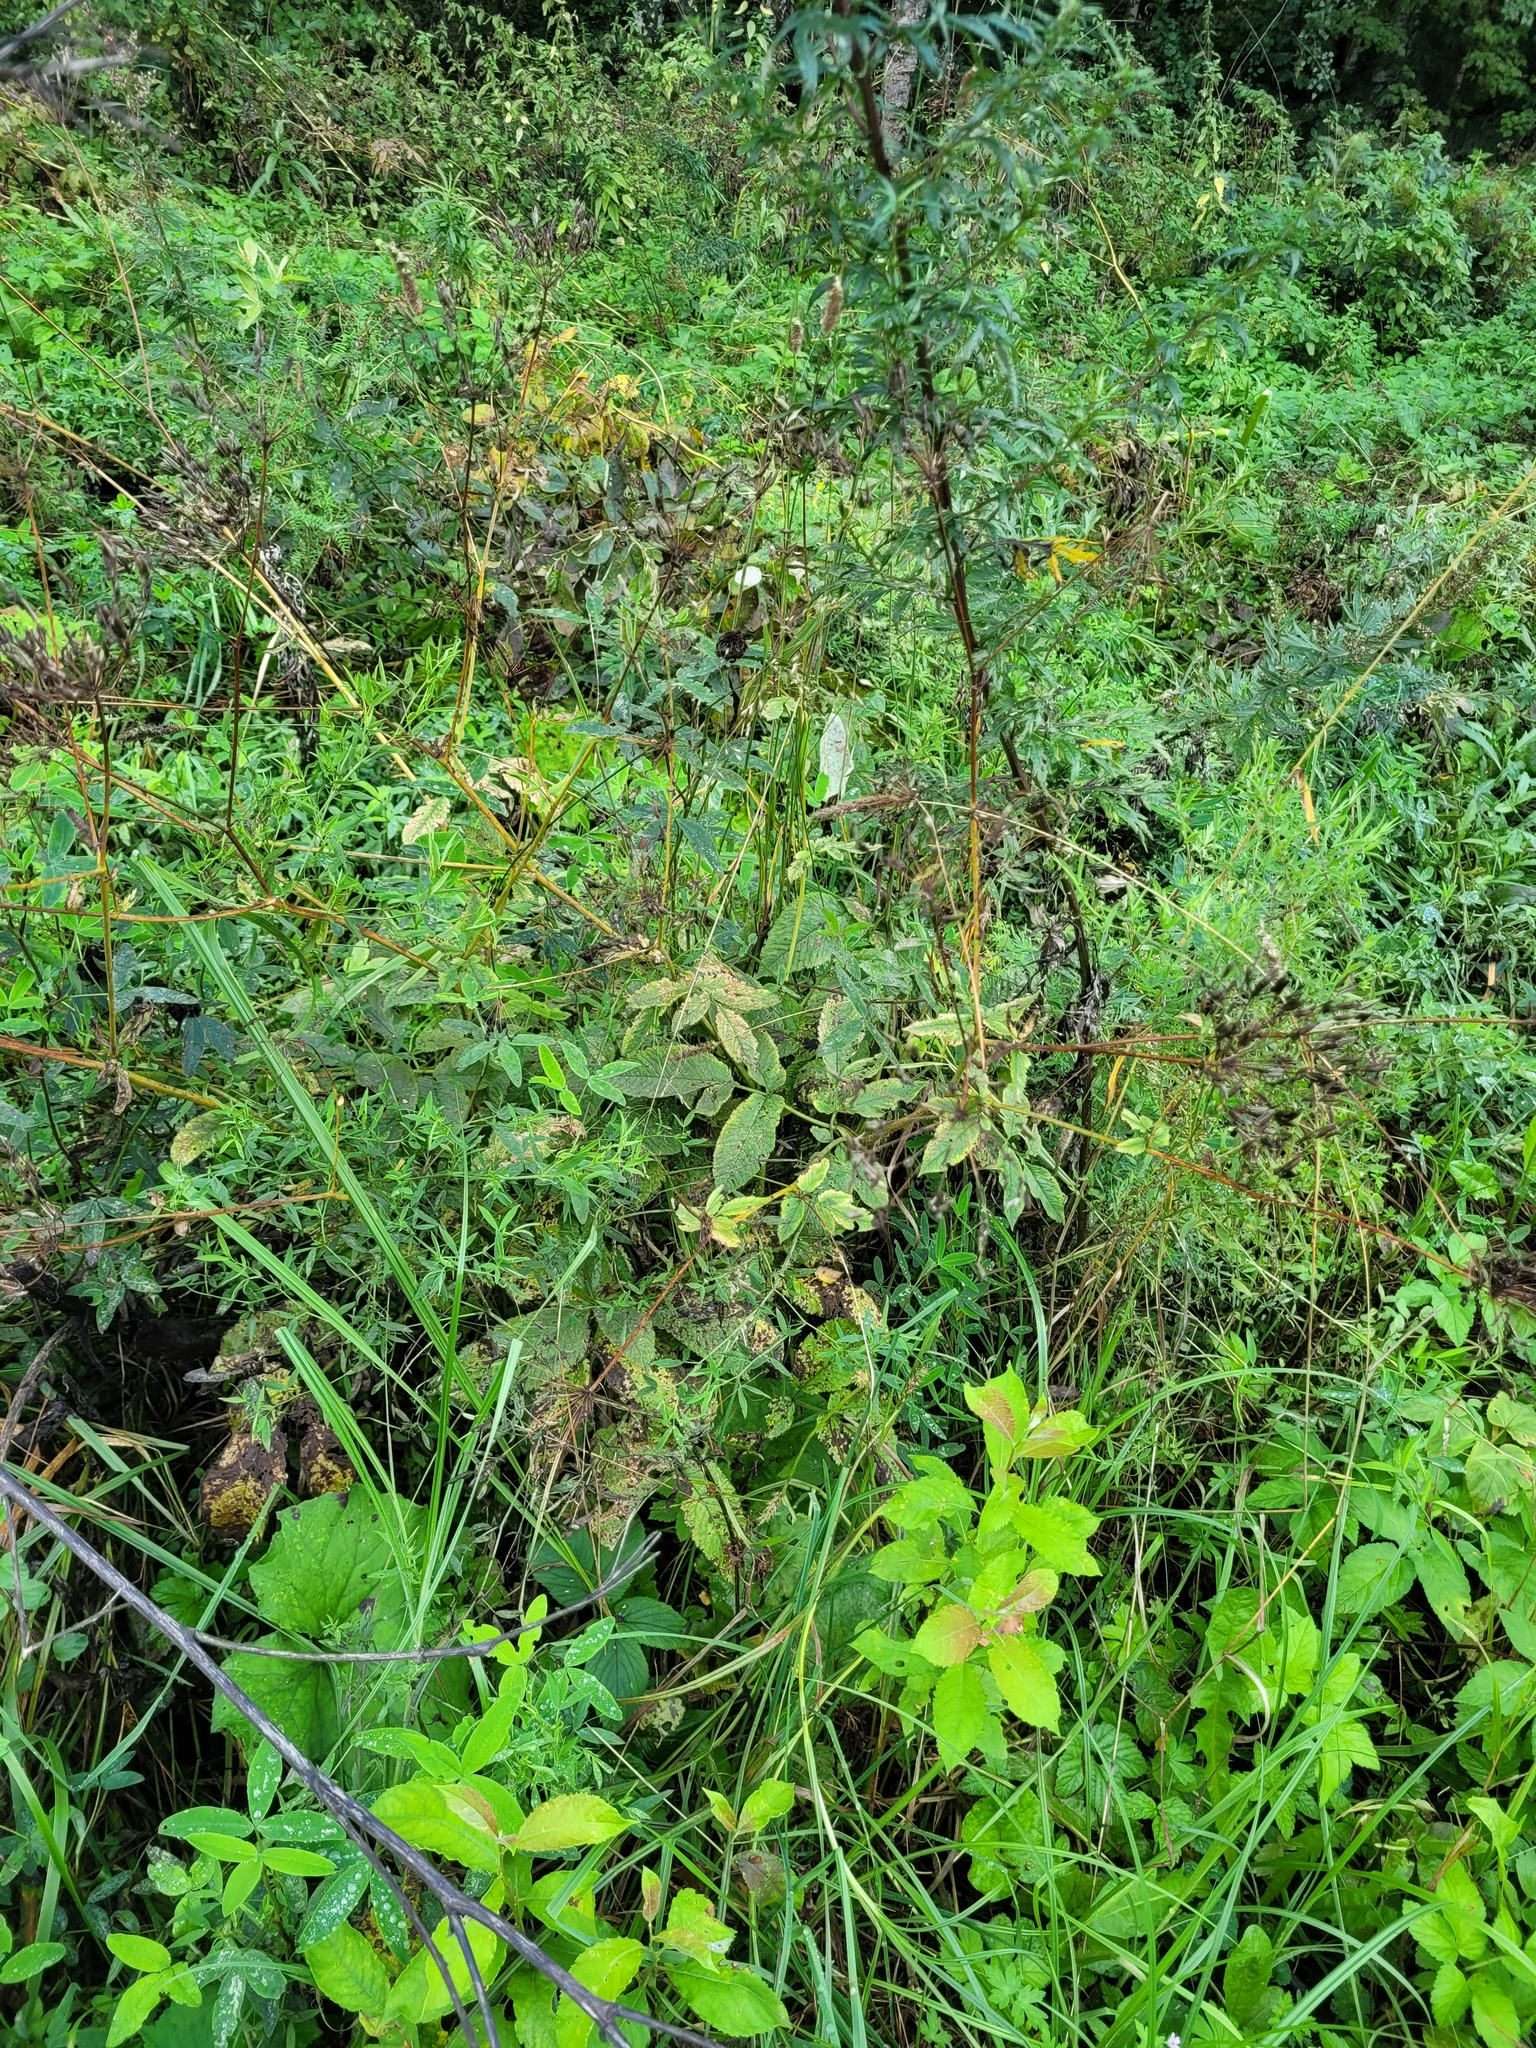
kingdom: Plantae
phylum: Tracheophyta
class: Magnoliopsida
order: Apiales
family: Apiaceae
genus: Chaerophyllum
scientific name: Chaerophyllum aromaticum
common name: Broadleaf chervil
